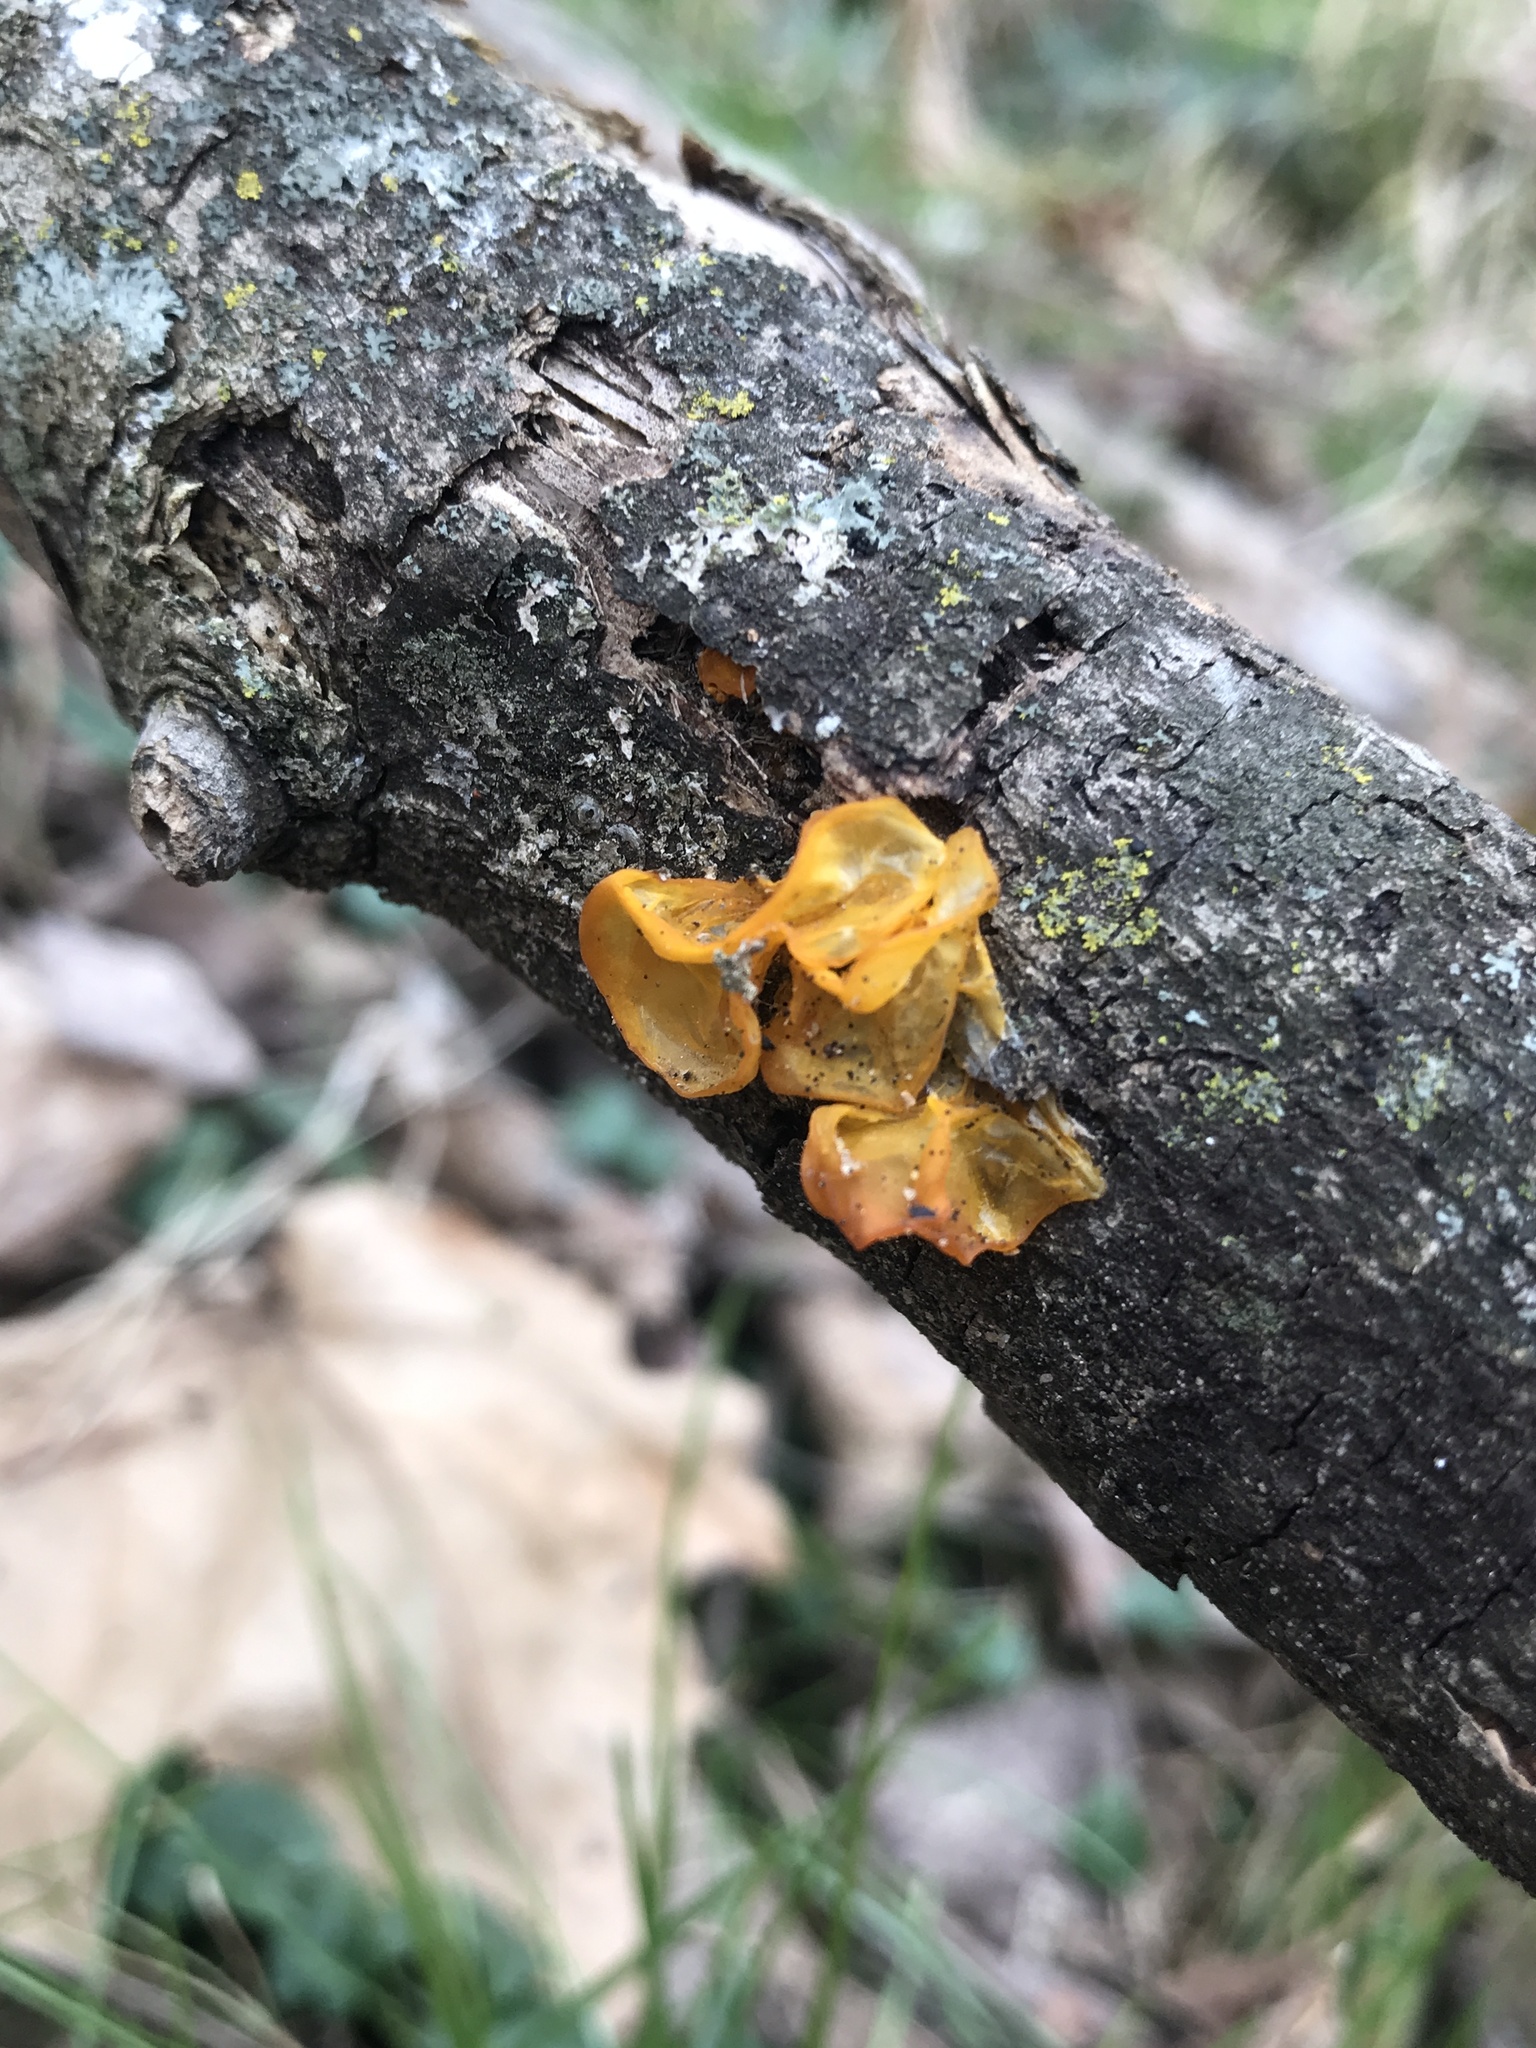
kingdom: Fungi
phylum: Basidiomycota
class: Tremellomycetes
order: Tremellales
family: Tremellaceae
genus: Tremella
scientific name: Tremella mesenterica
